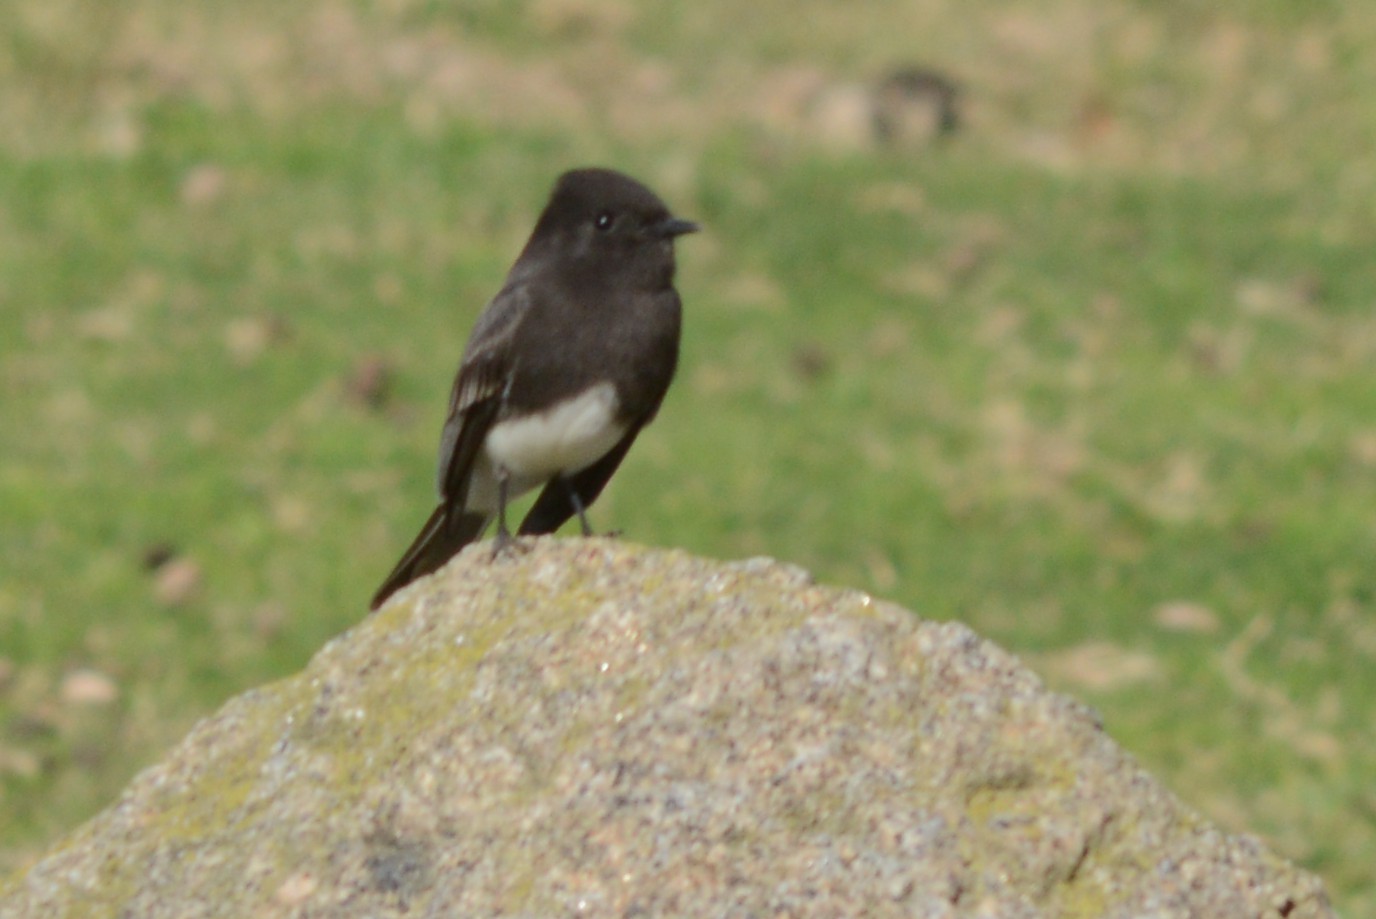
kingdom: Animalia
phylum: Chordata
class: Aves
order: Passeriformes
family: Tyrannidae
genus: Sayornis
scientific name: Sayornis nigricans
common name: Black phoebe
